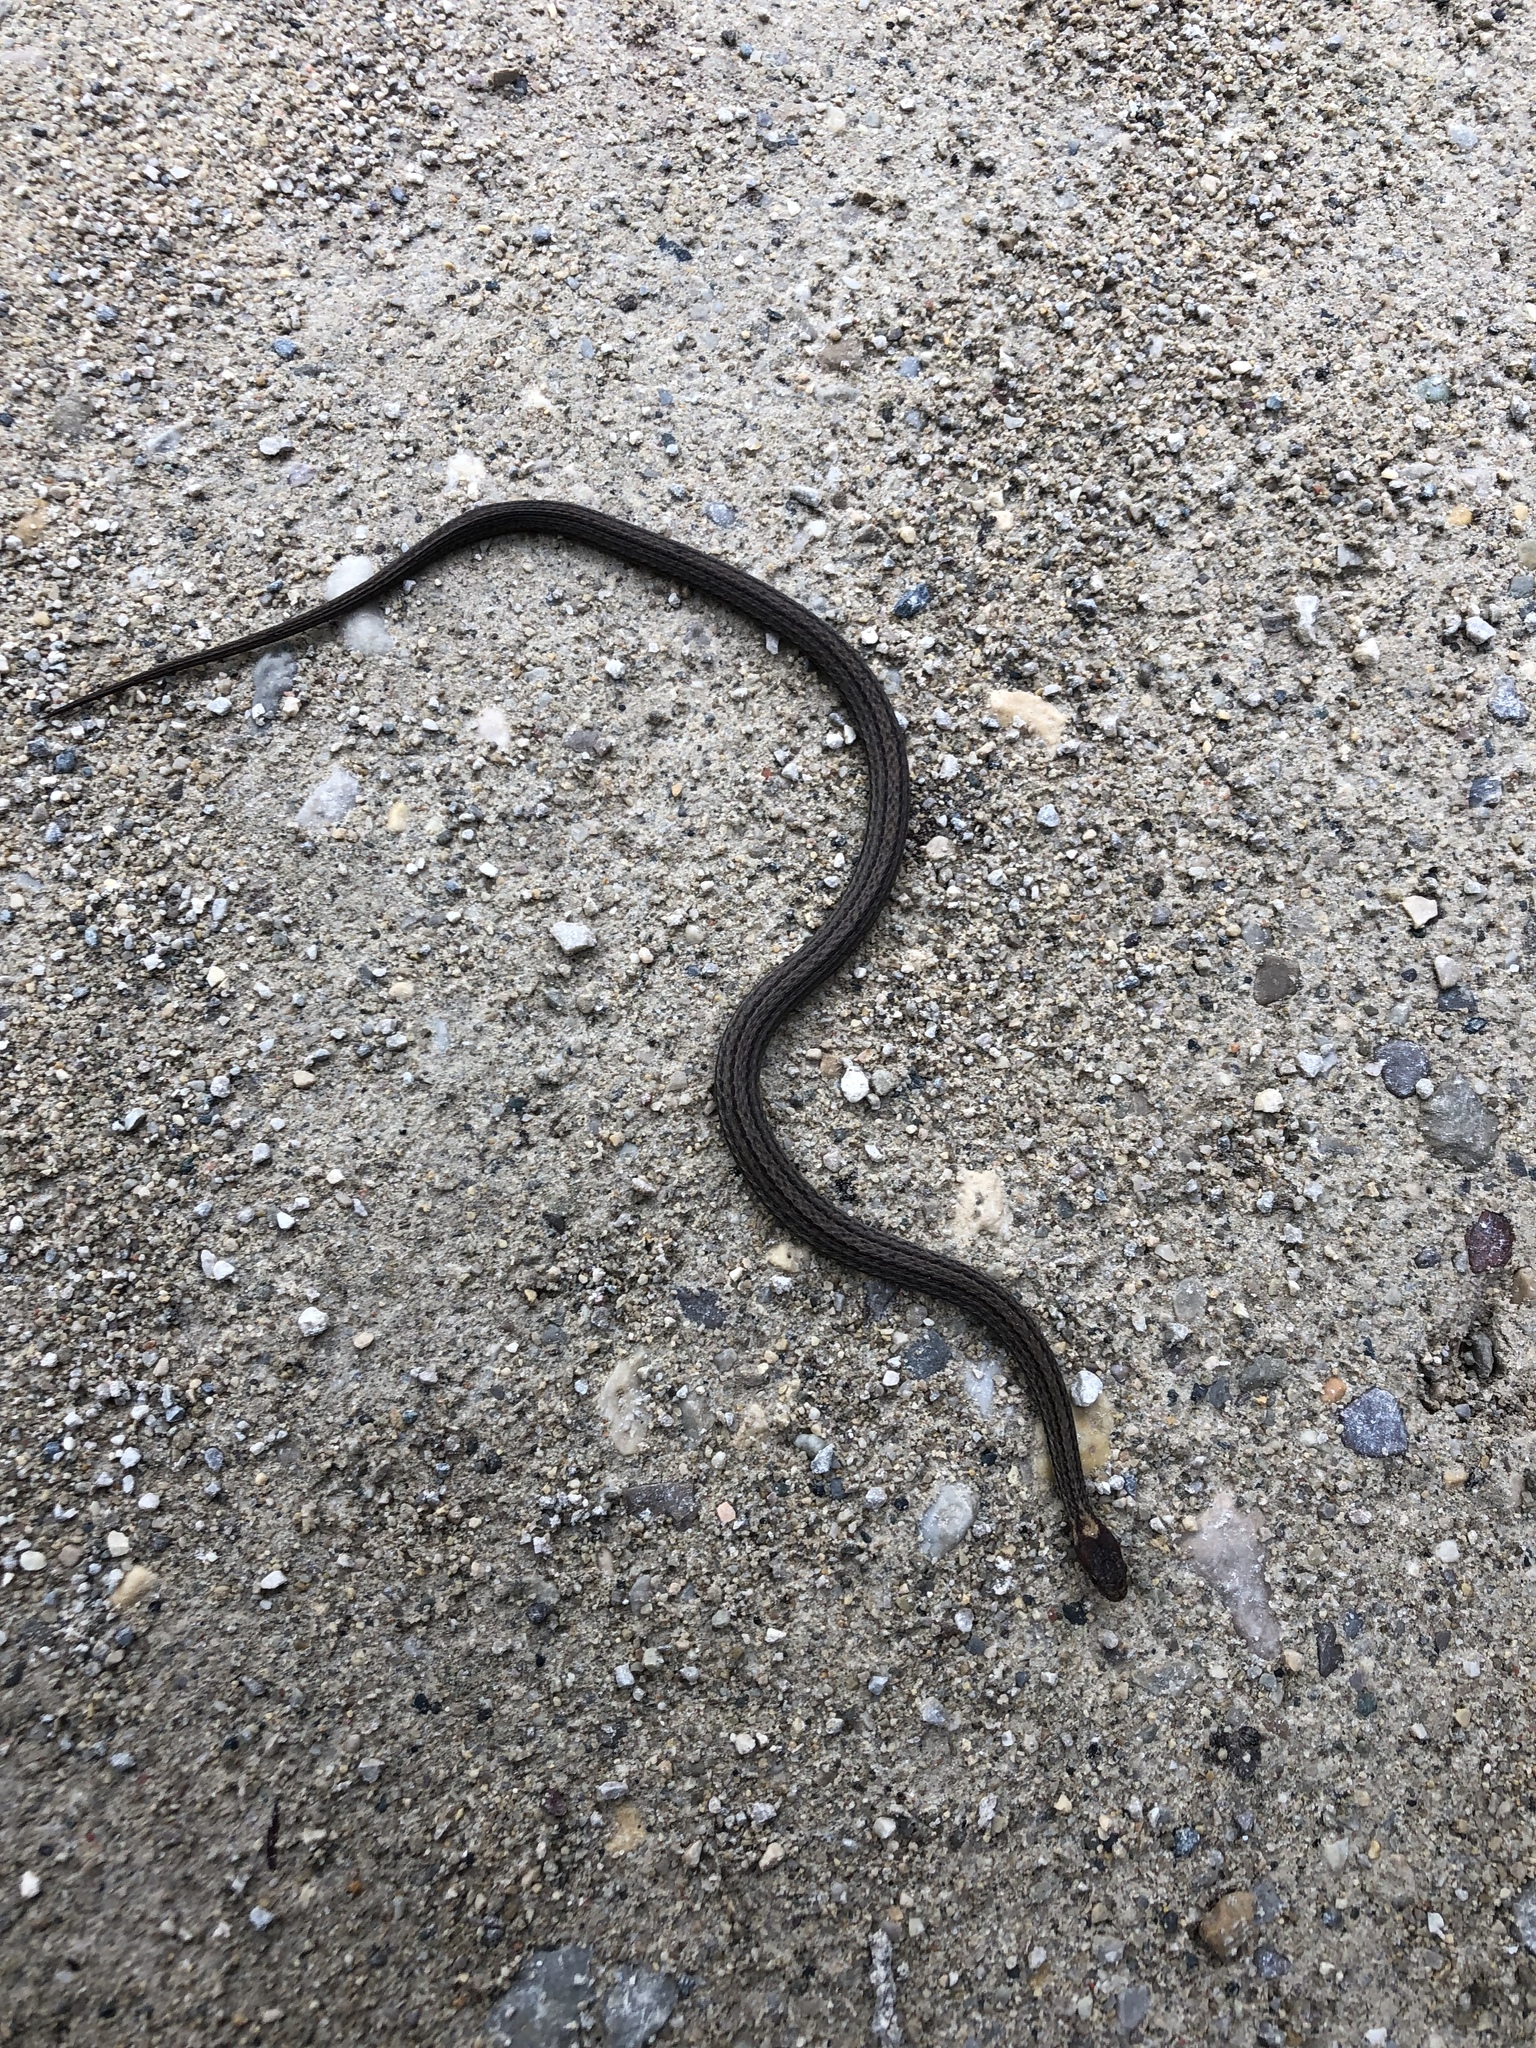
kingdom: Animalia
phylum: Chordata
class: Squamata
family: Colubridae
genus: Storeria
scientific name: Storeria occipitomaculata
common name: Redbelly snake
